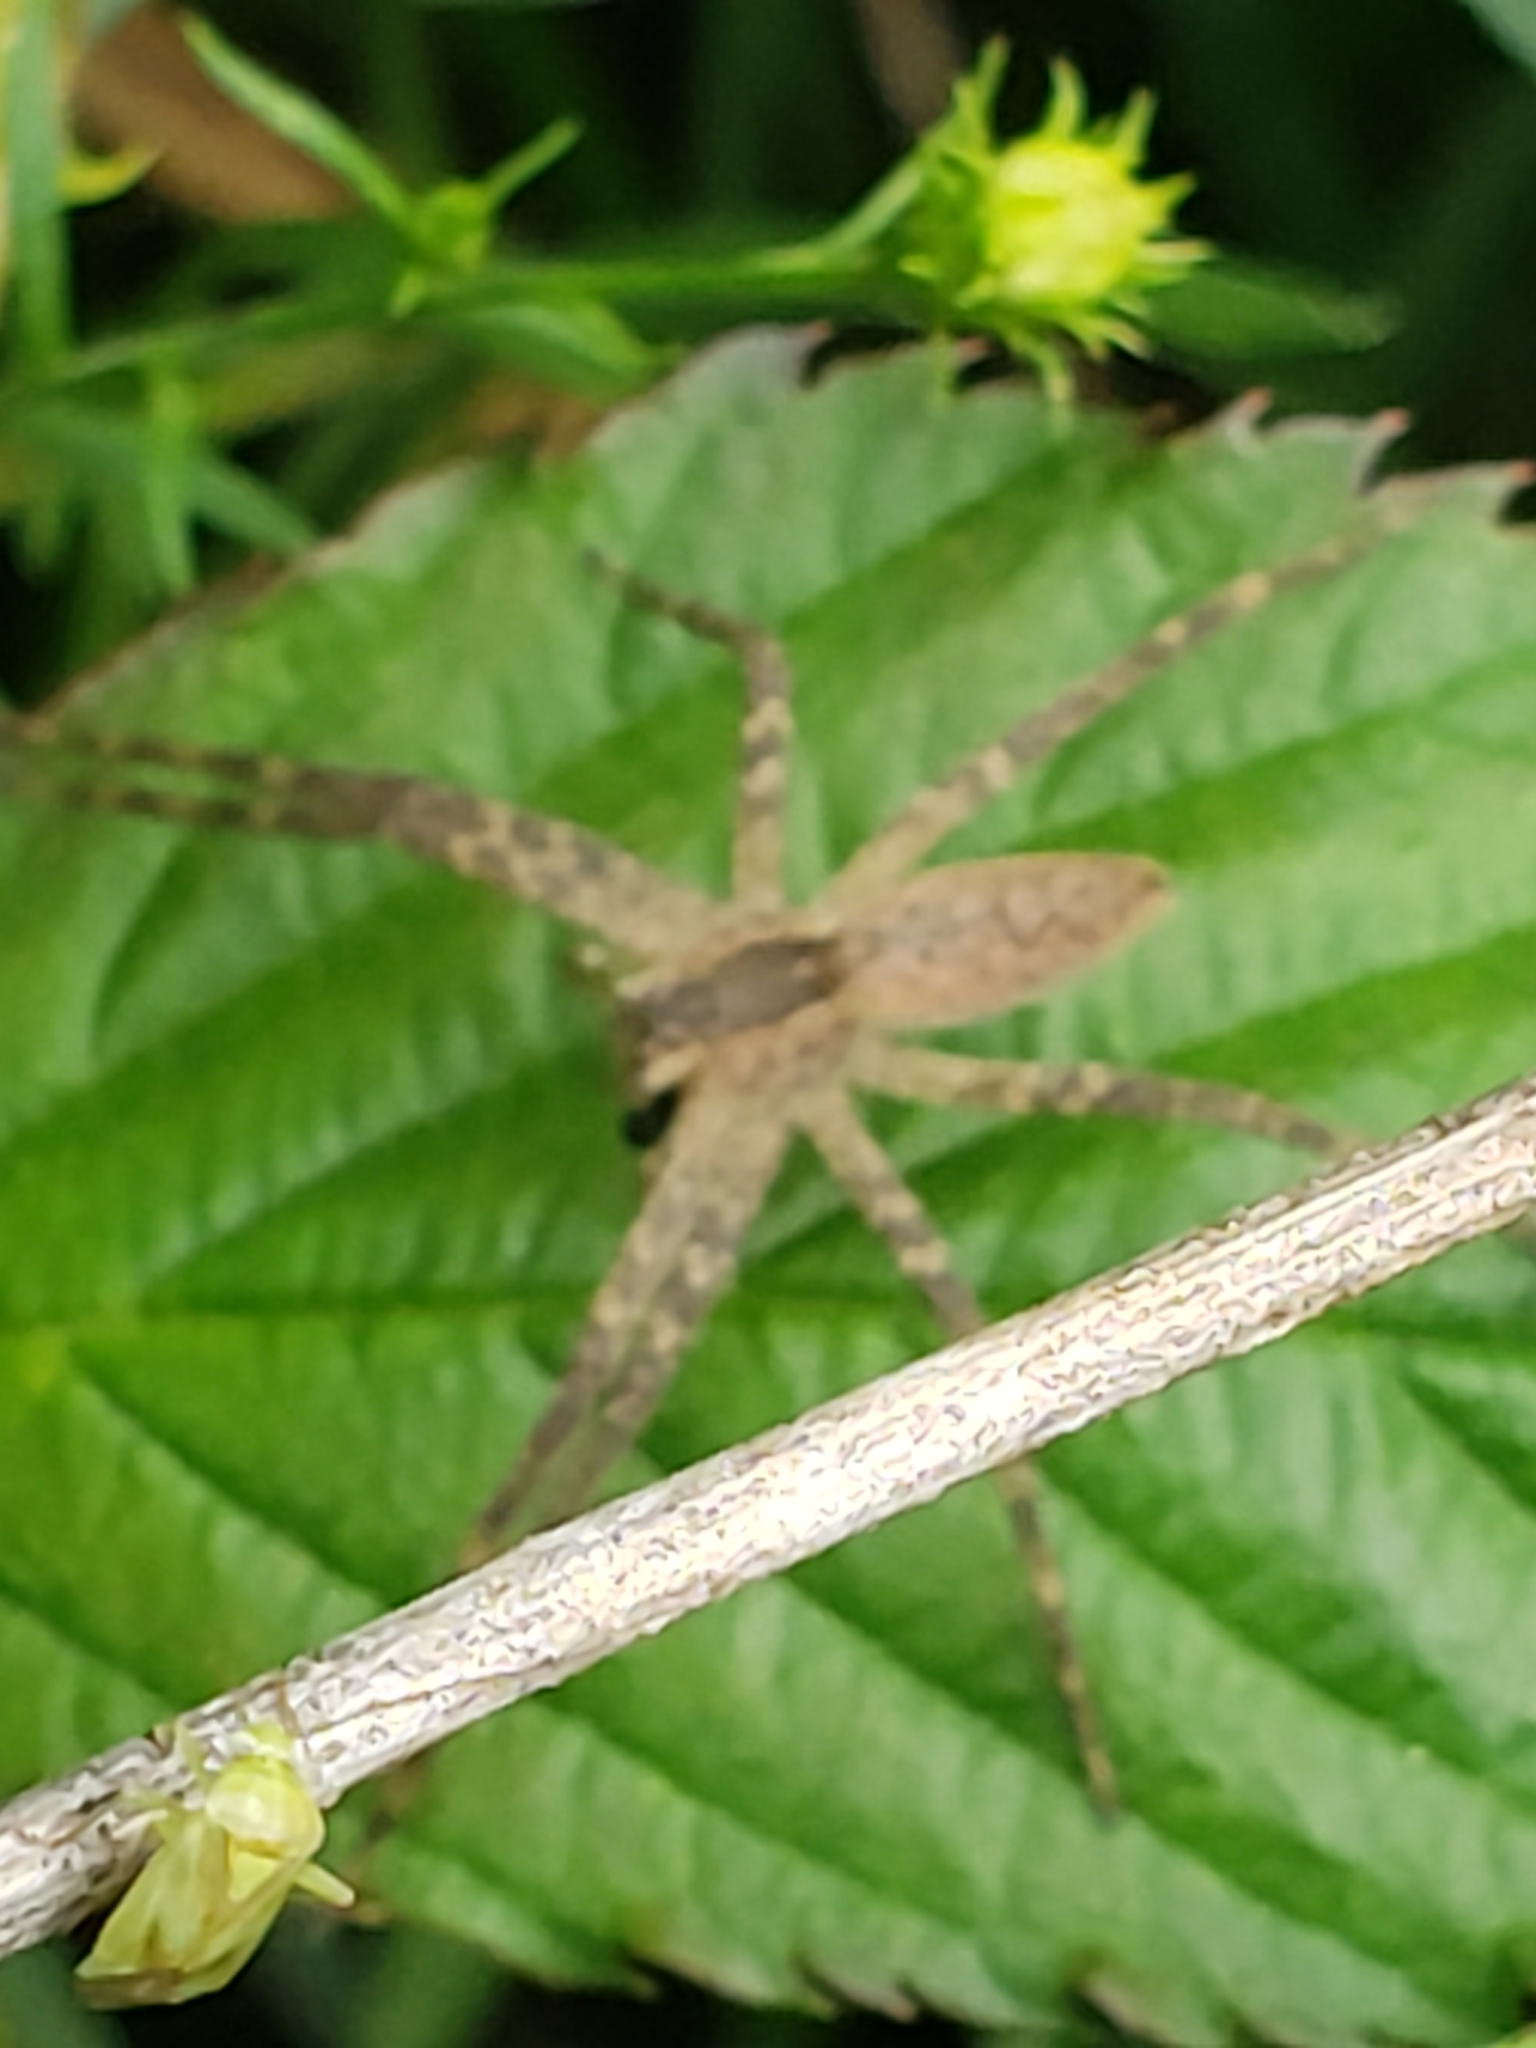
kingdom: Animalia
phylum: Arthropoda
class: Arachnida
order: Araneae
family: Pisauridae
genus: Pisaurina
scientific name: Pisaurina mira
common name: American nursery web spider
